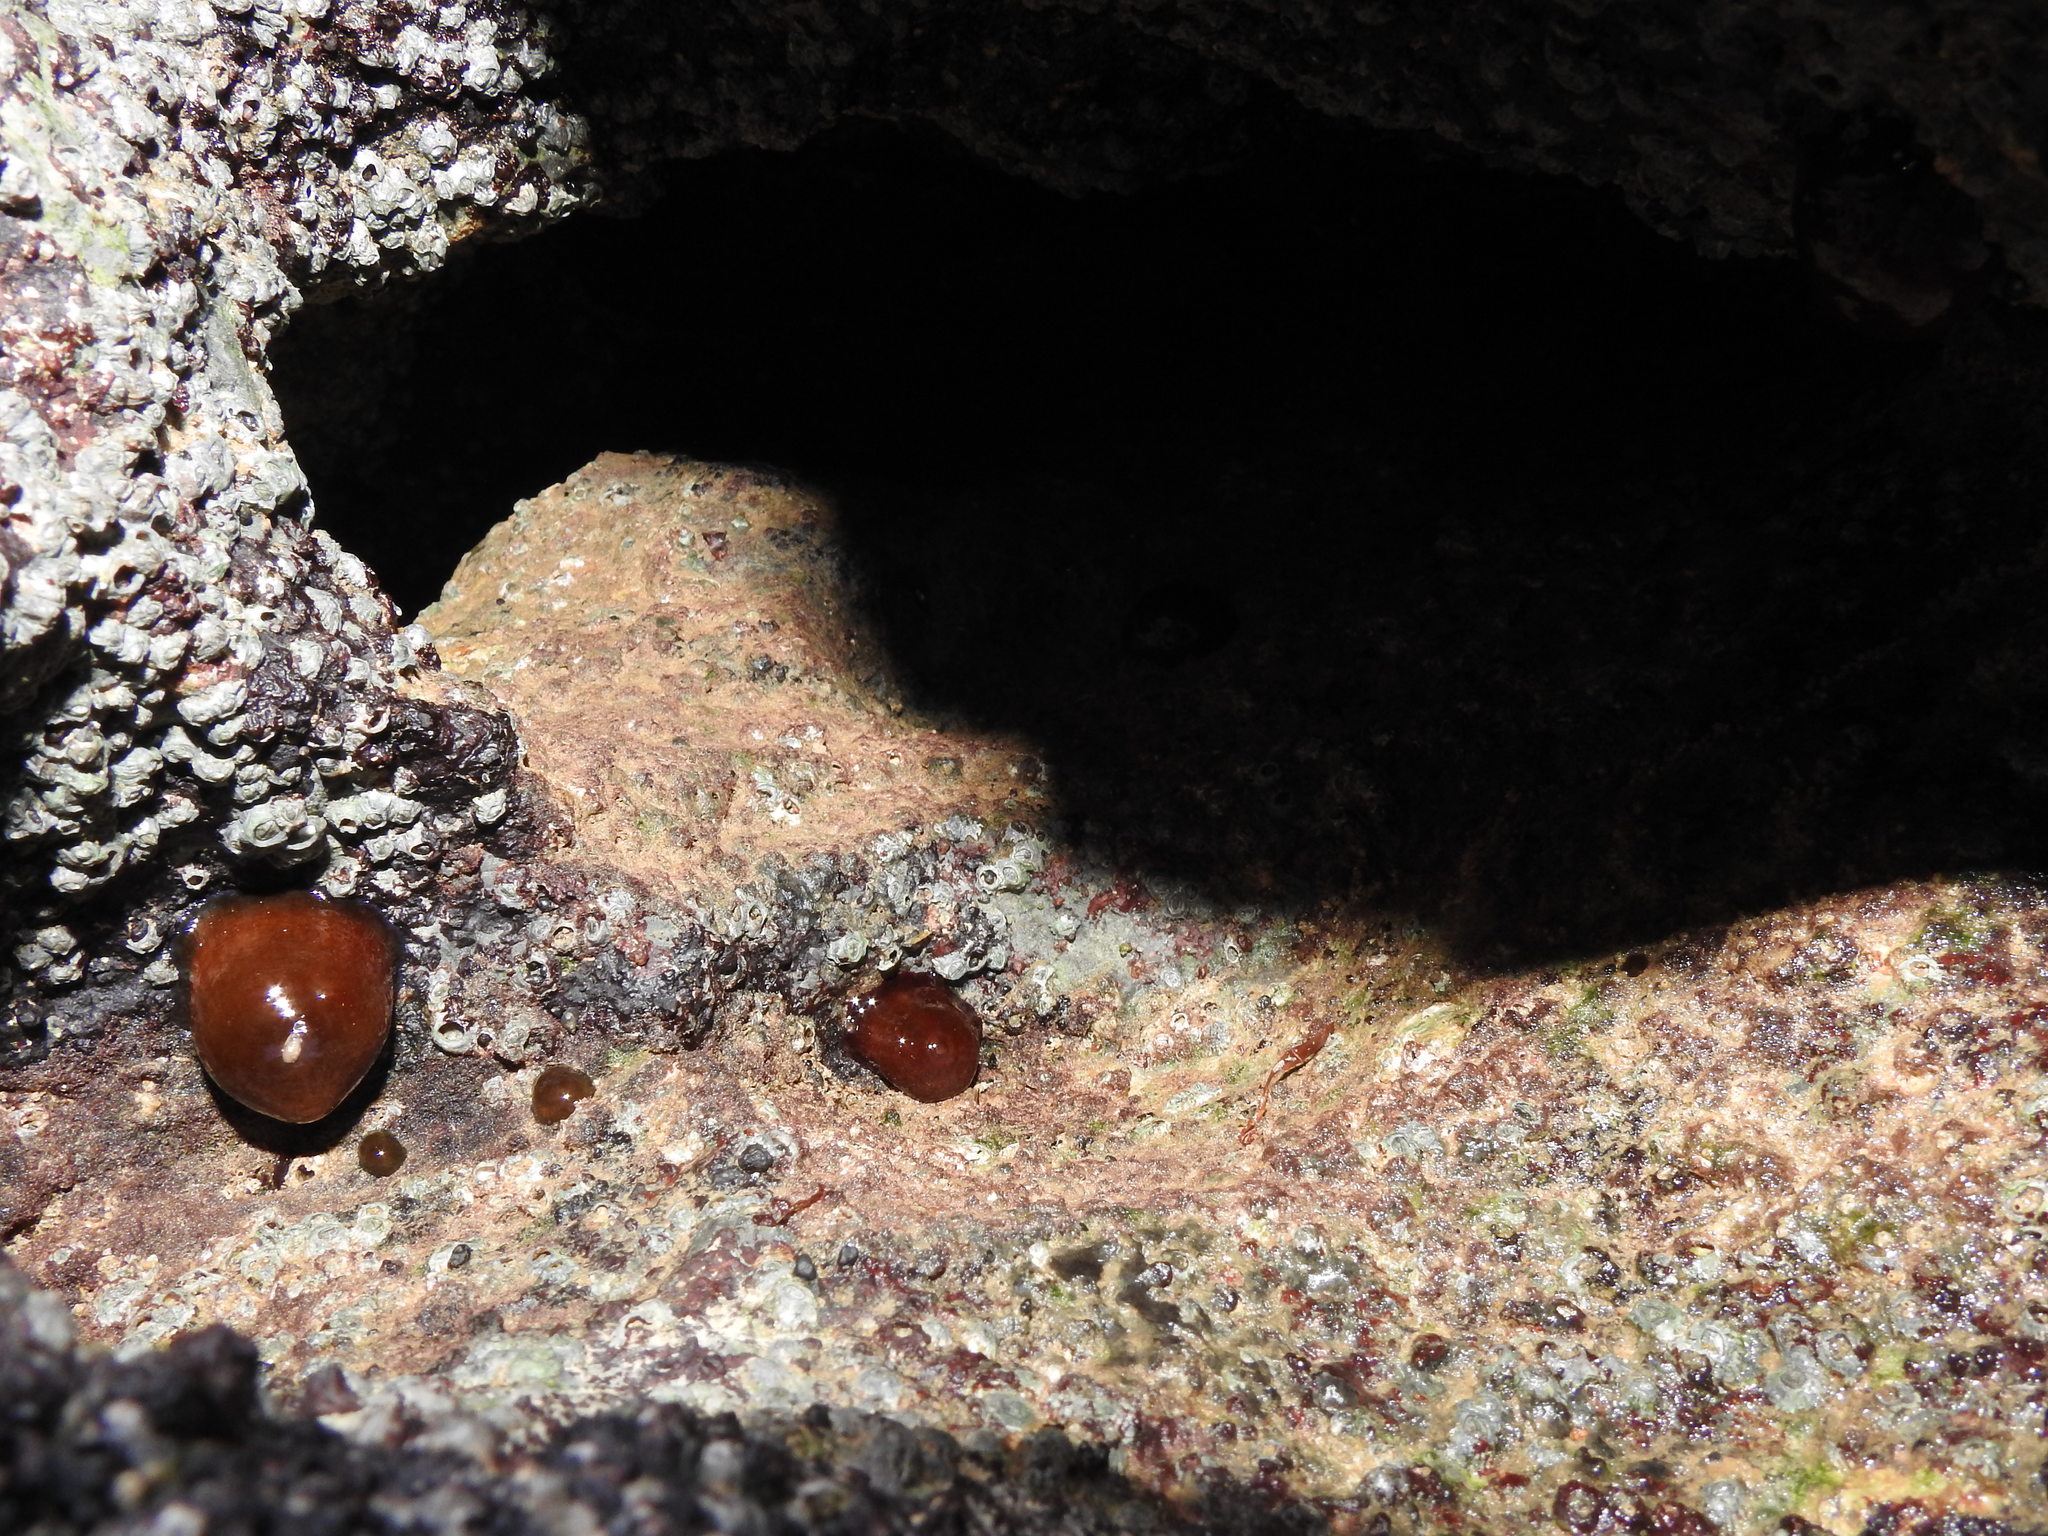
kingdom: Animalia
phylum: Cnidaria
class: Anthozoa
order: Actiniaria
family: Actiniidae
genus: Actinia
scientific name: Actinia equina
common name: Beadlet anemone
